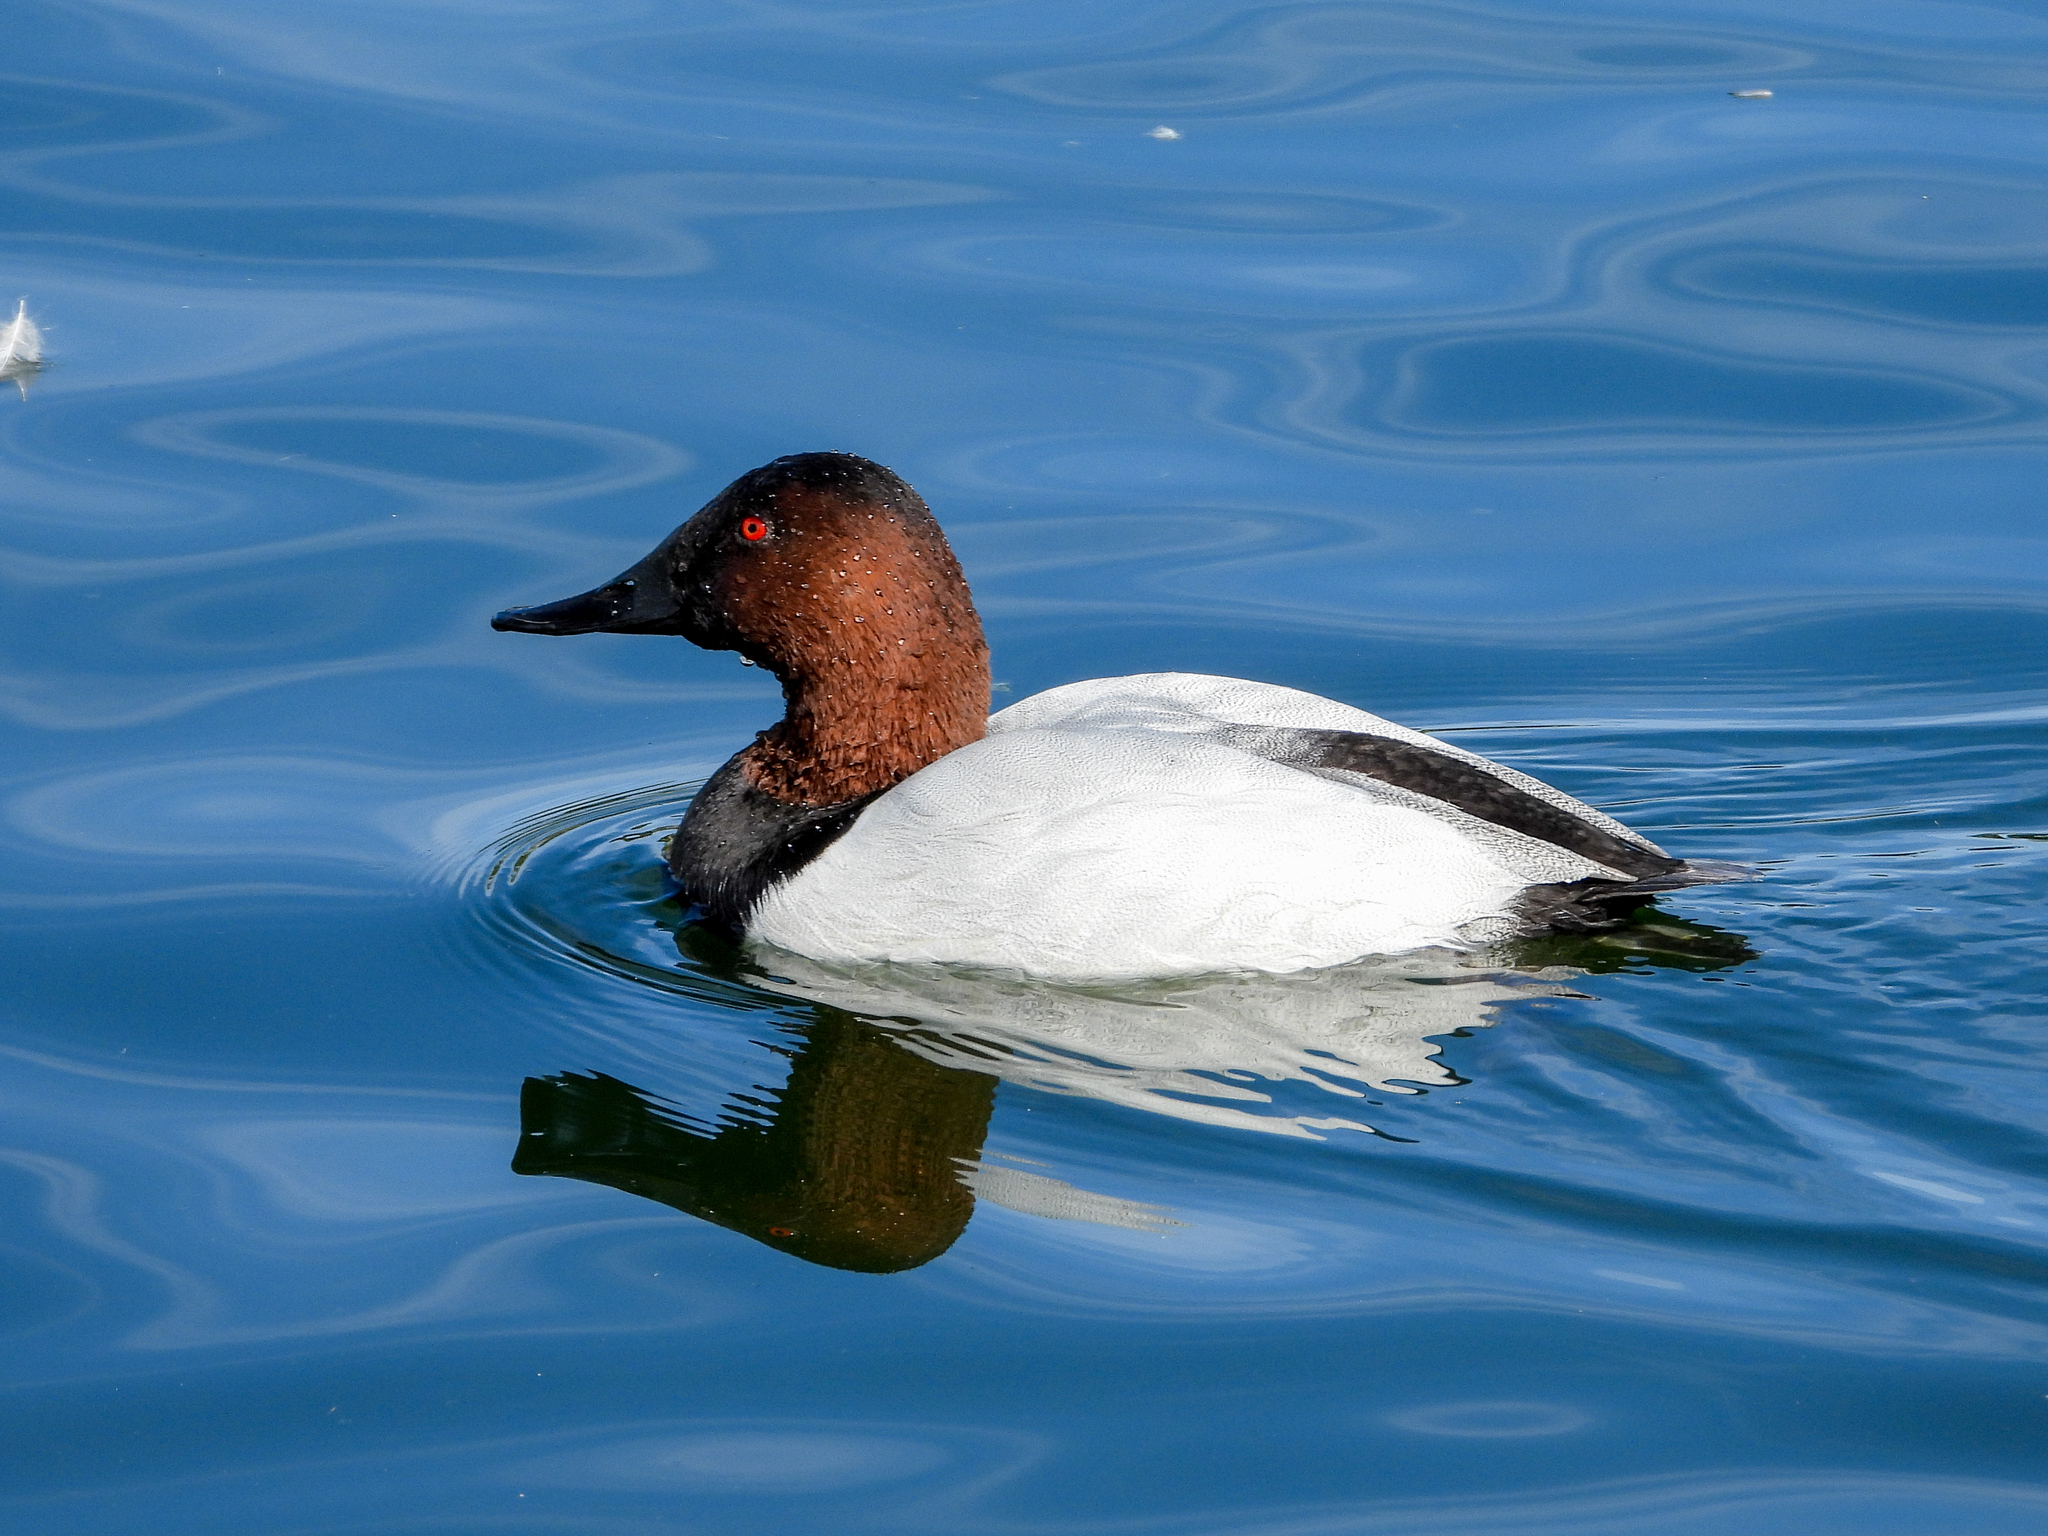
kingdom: Animalia
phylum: Chordata
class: Aves
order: Anseriformes
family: Anatidae
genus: Aythya
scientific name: Aythya valisineria
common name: Canvasback
